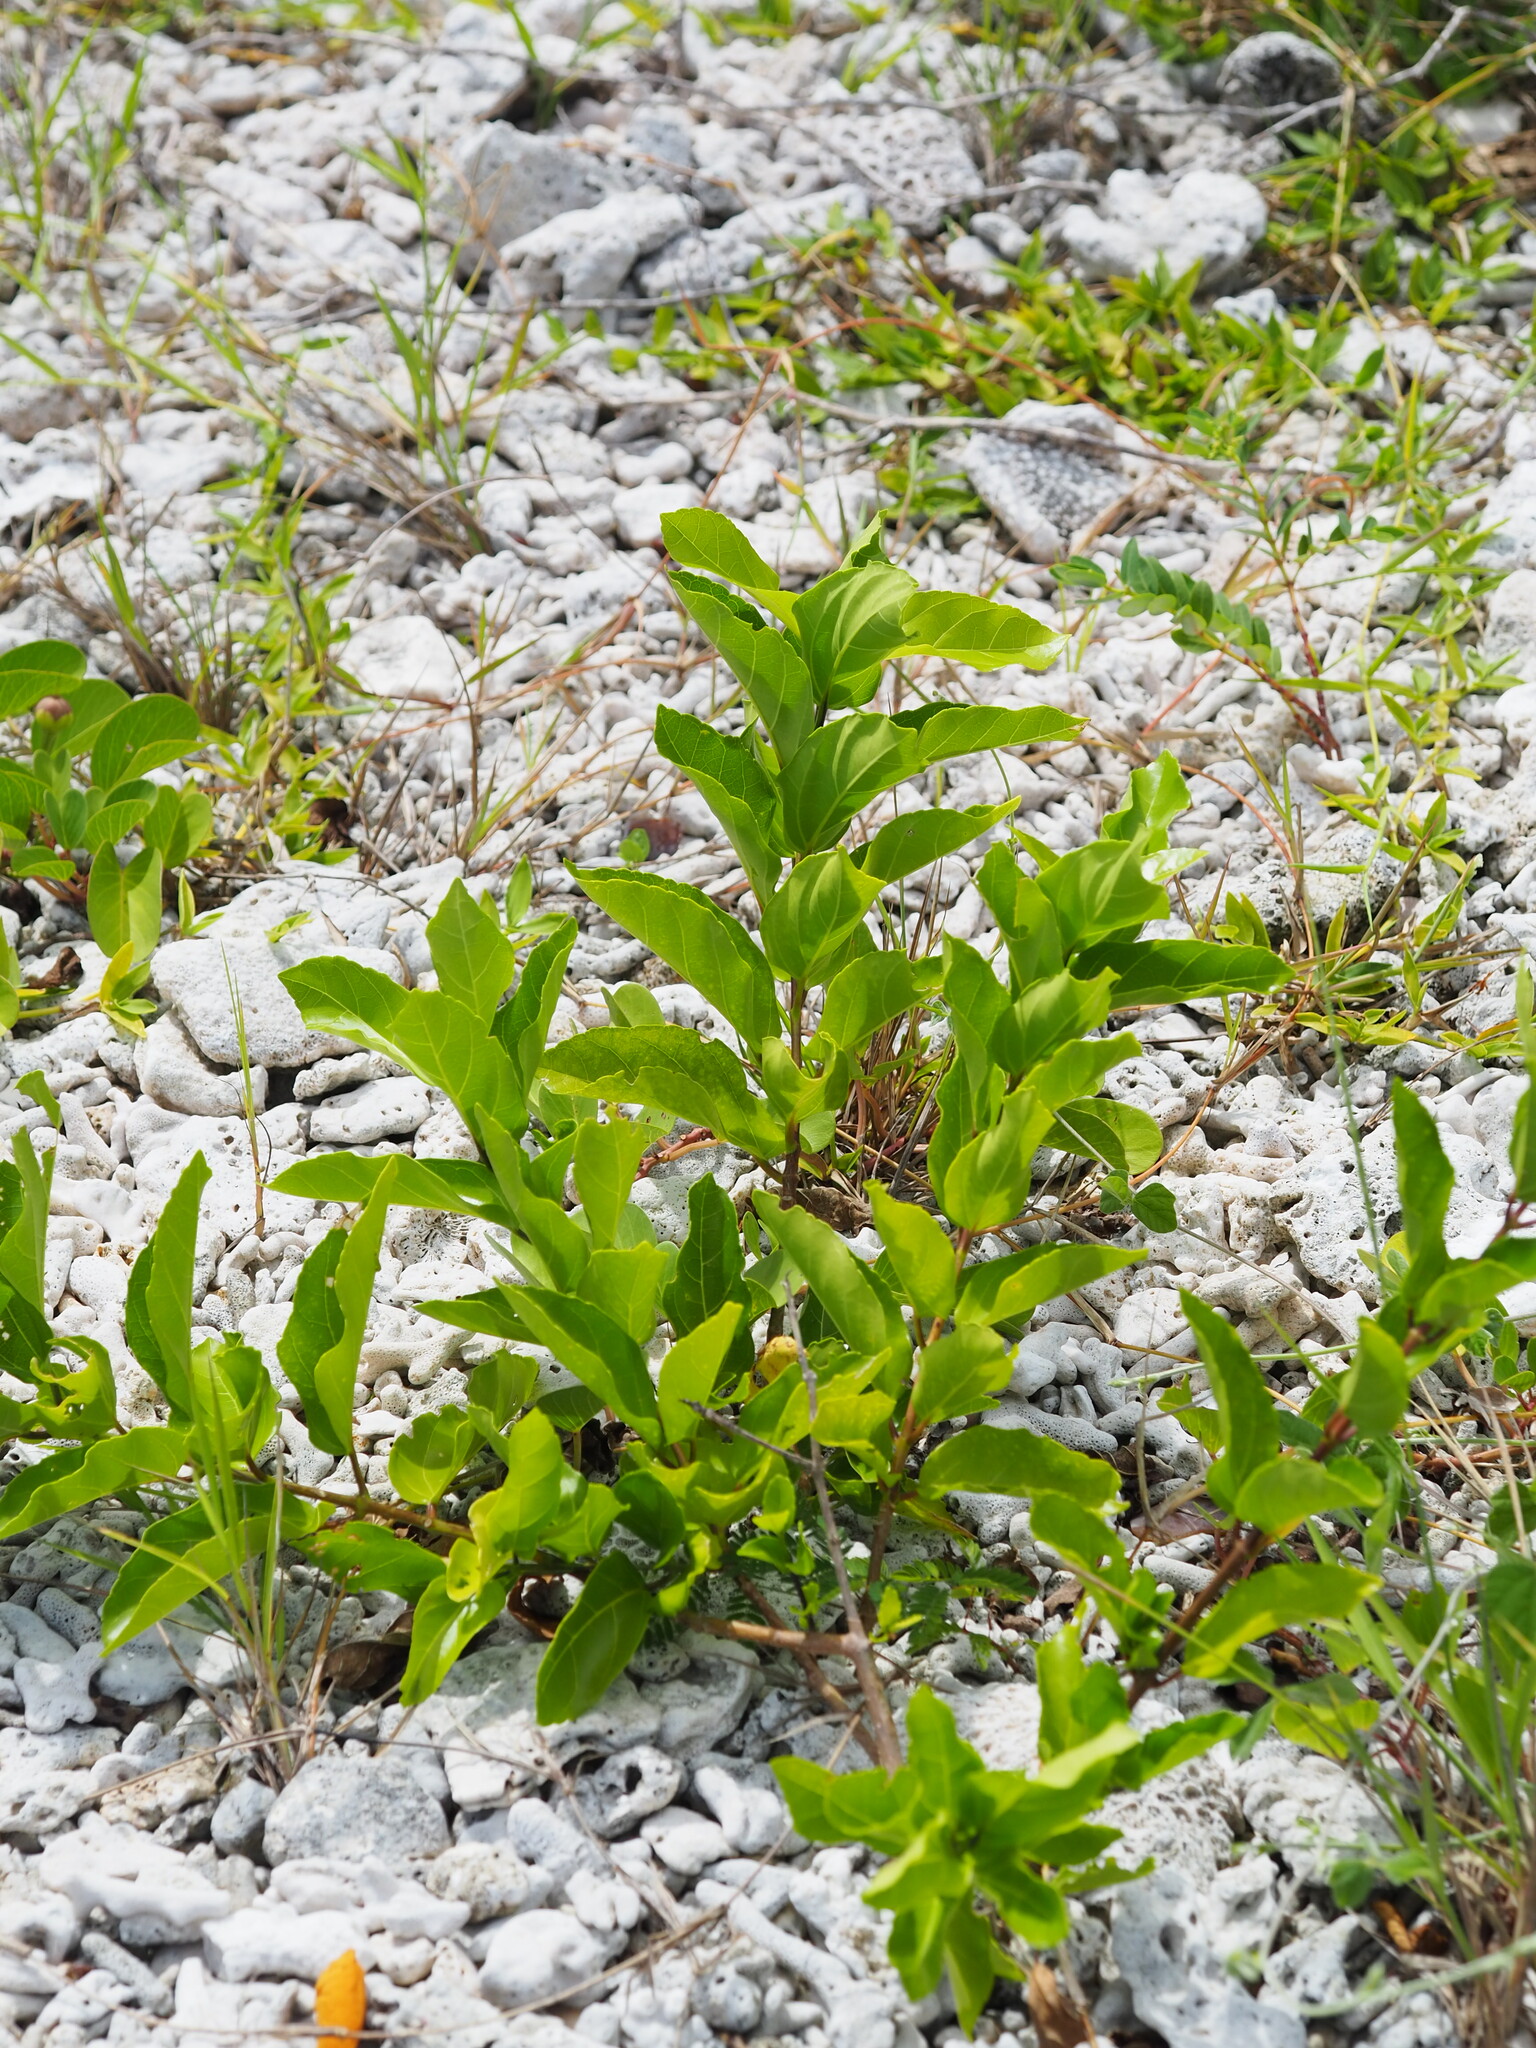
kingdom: Plantae
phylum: Tracheophyta
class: Magnoliopsida
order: Lamiales
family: Lamiaceae
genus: Volkameria
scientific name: Volkameria inermis
